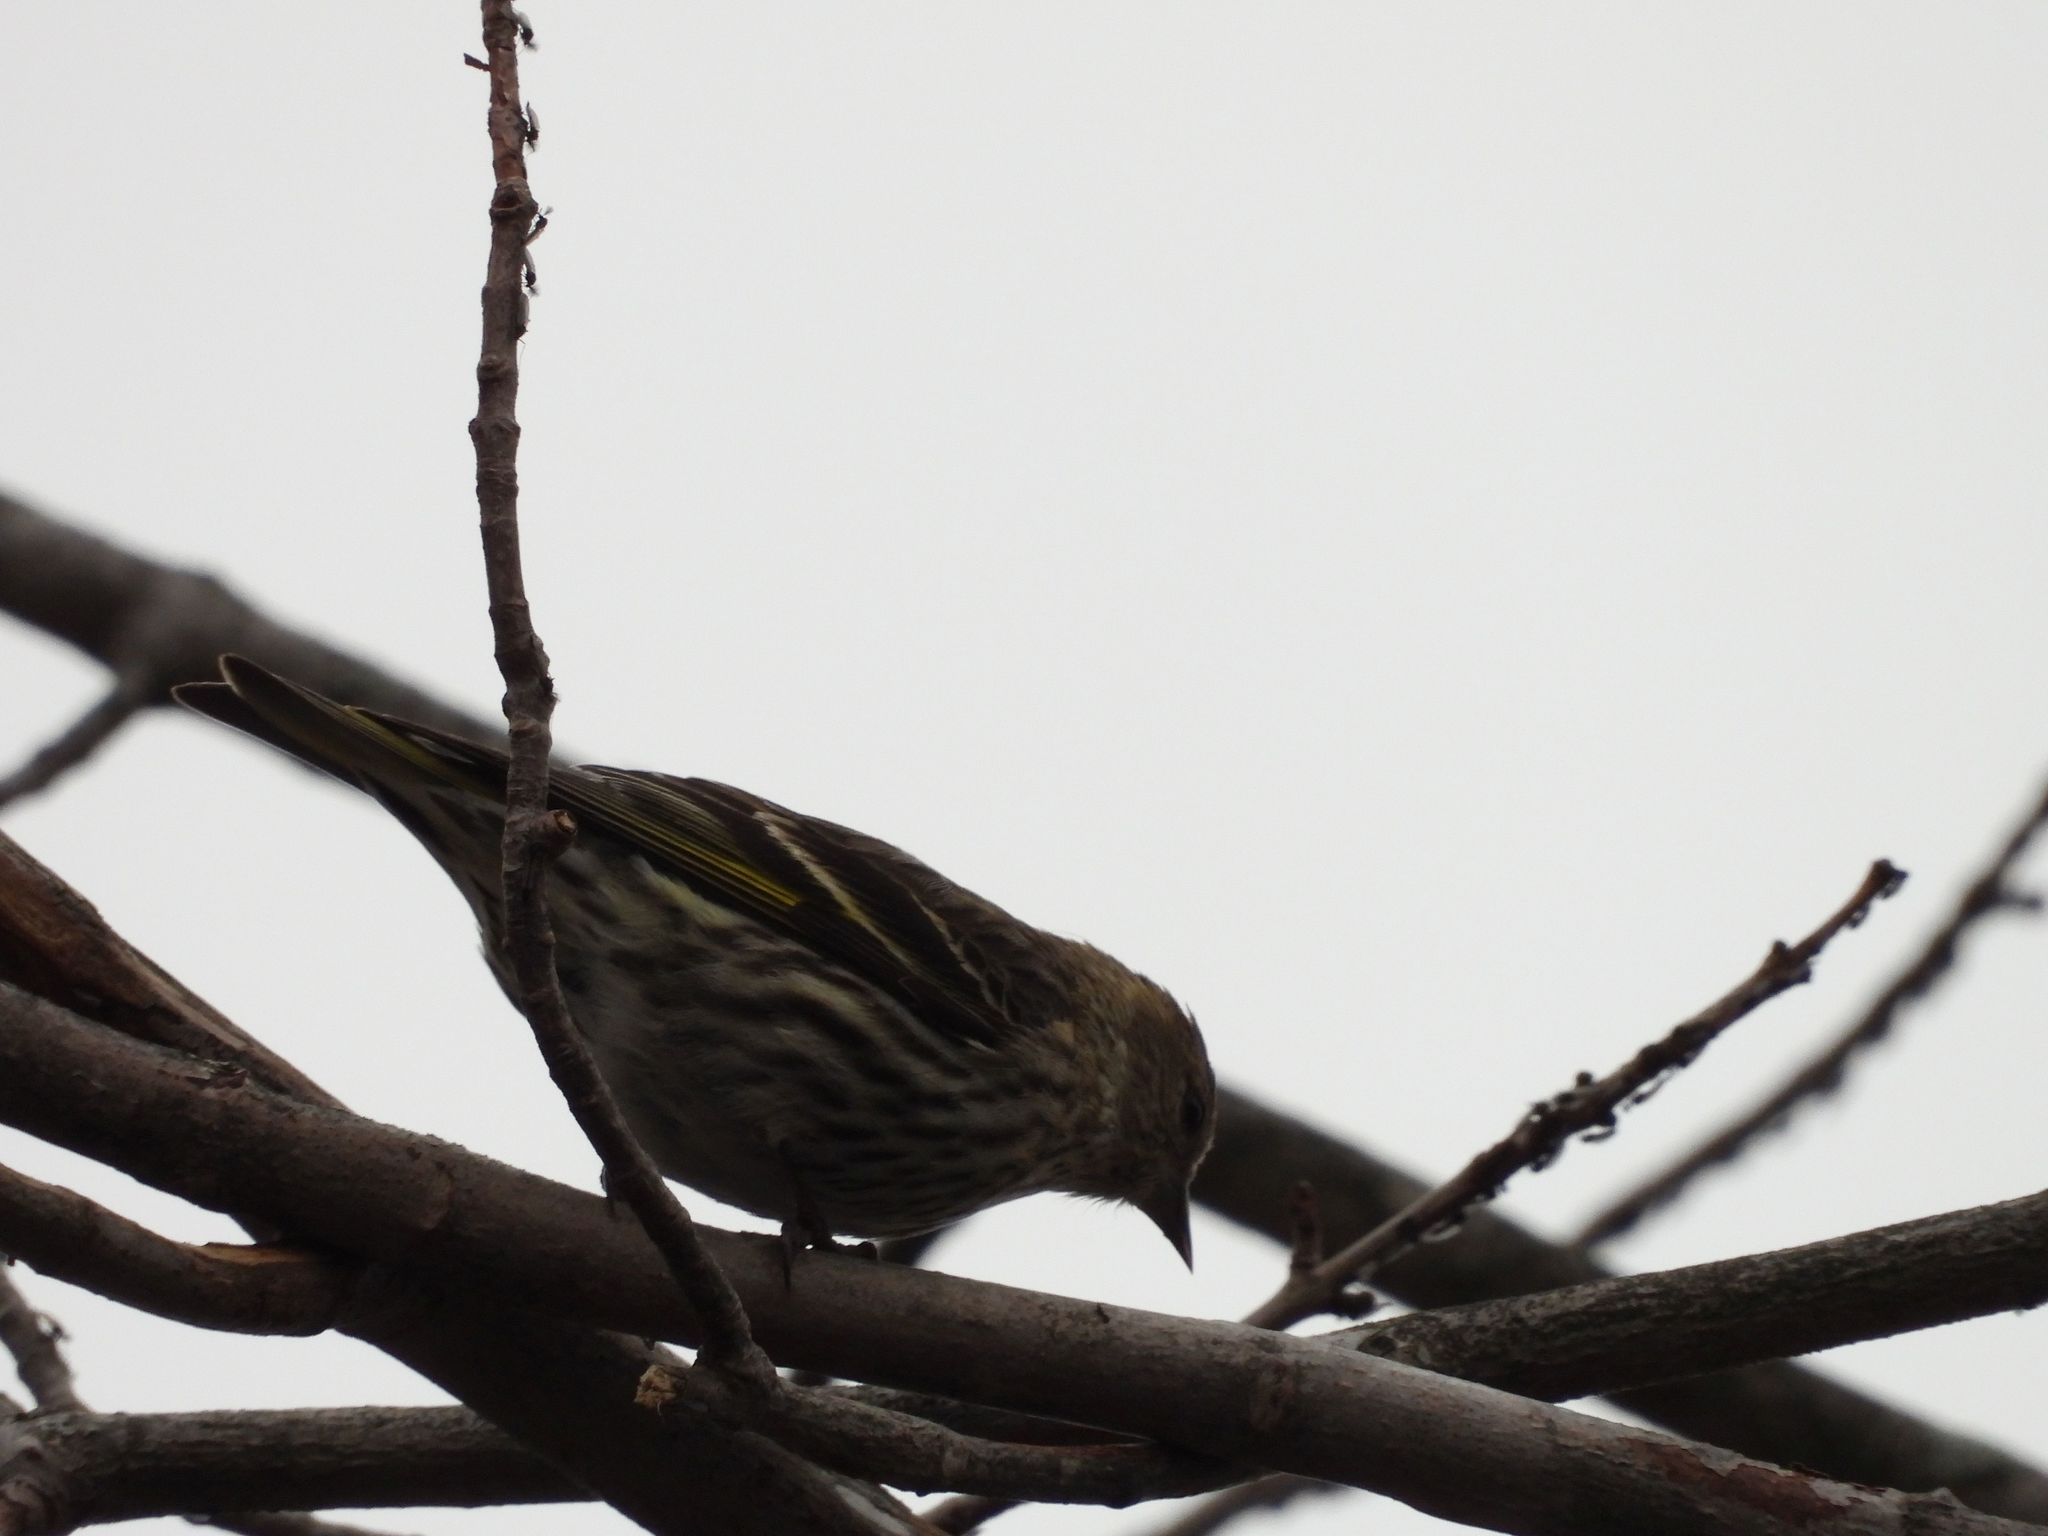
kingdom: Animalia
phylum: Chordata
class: Aves
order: Passeriformes
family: Fringillidae
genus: Spinus
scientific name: Spinus pinus
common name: Pine siskin
